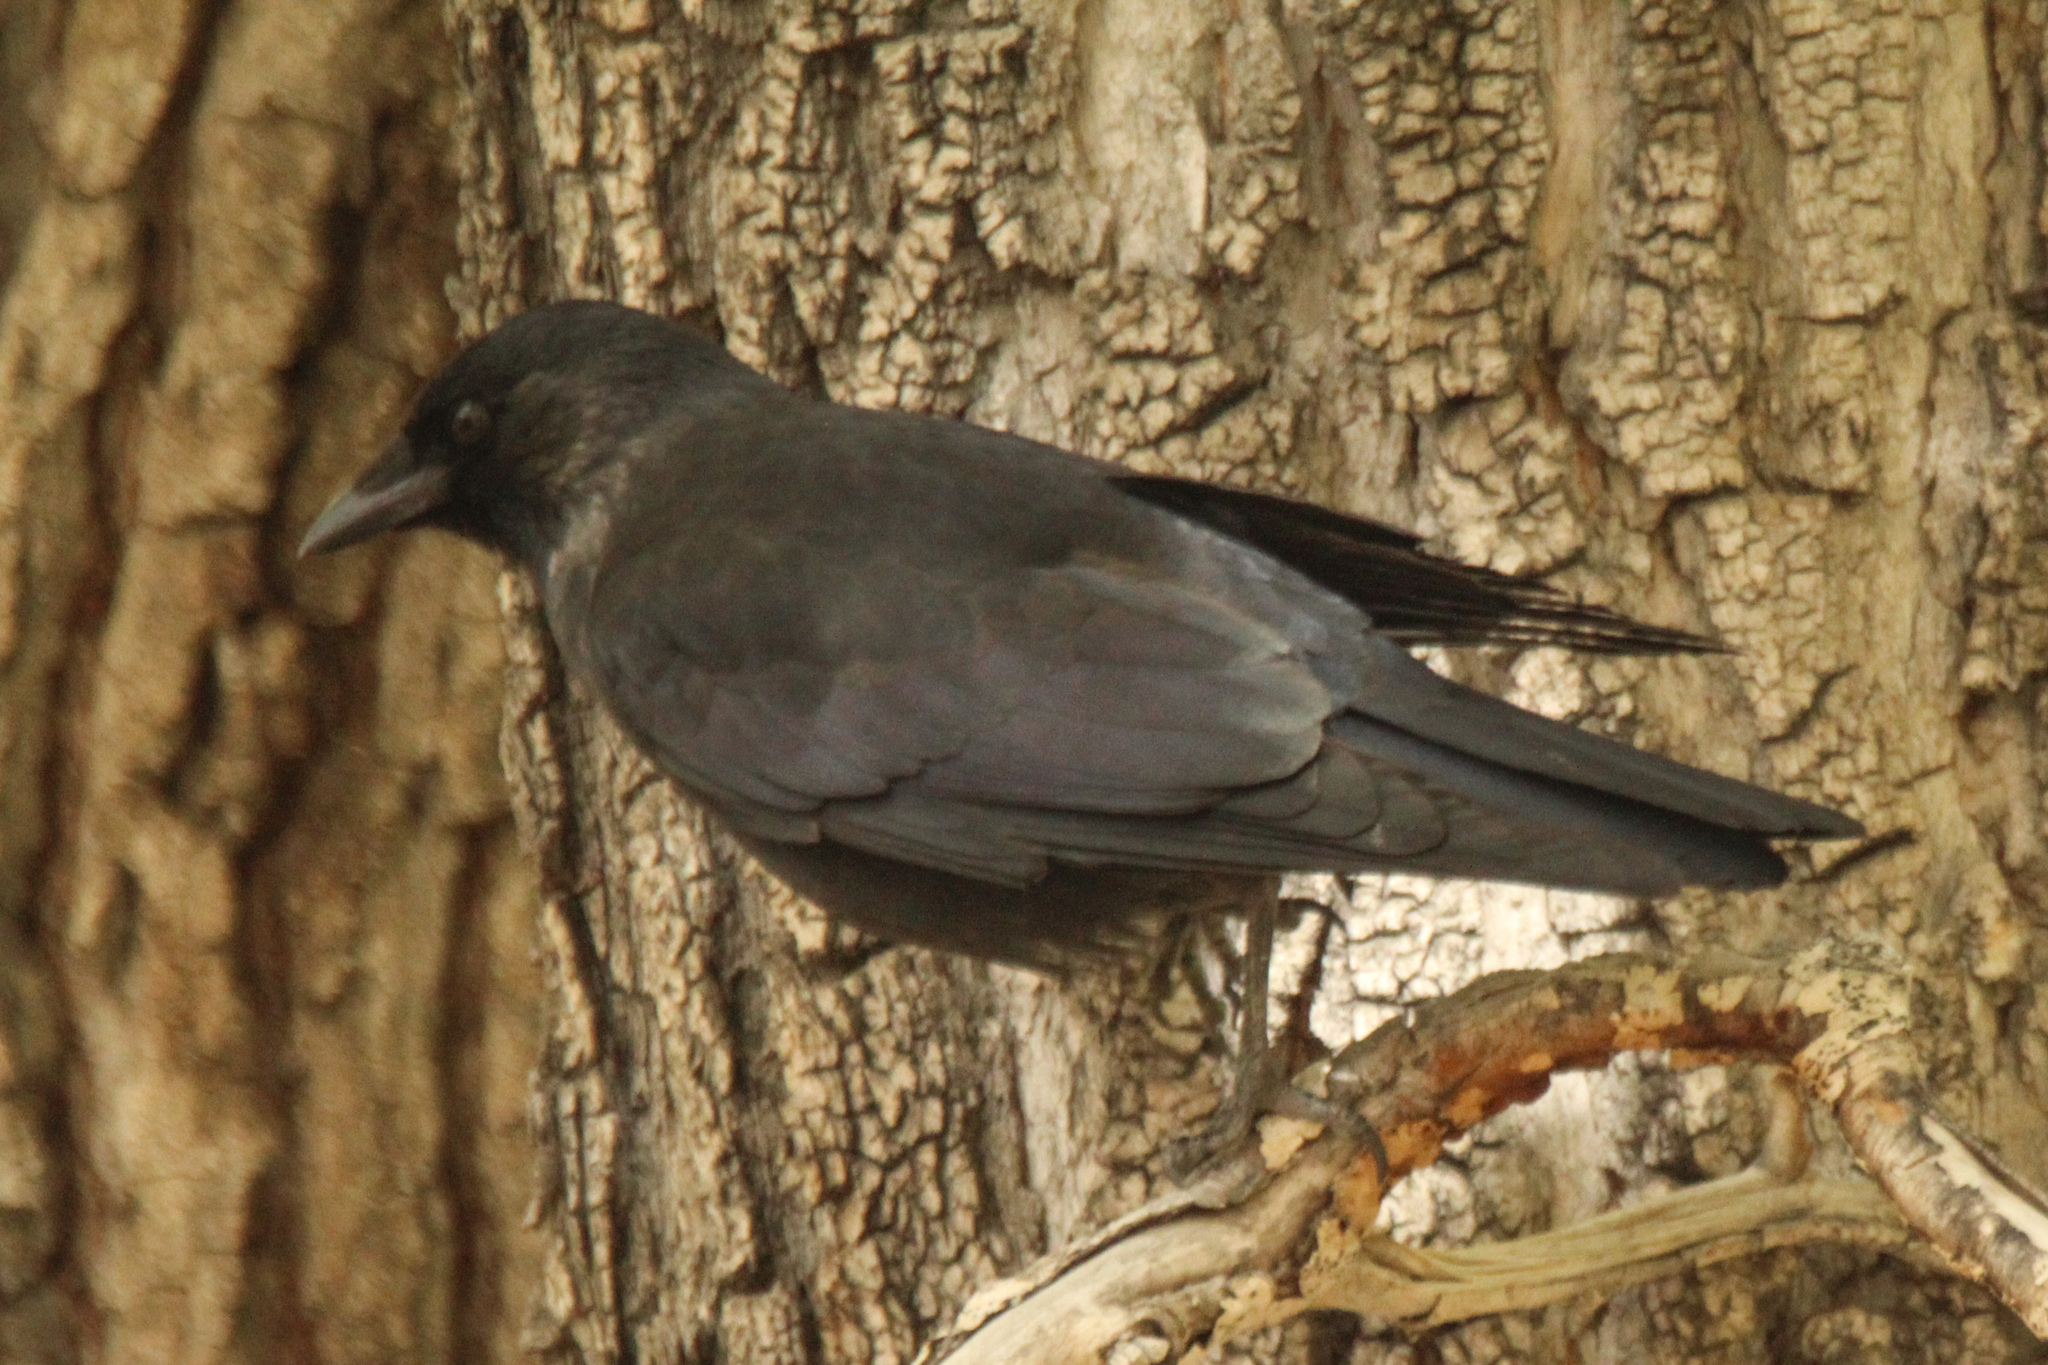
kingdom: Animalia
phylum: Chordata
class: Aves
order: Passeriformes
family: Corvidae
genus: Coloeus
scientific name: Coloeus dauuricus
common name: Daurian jackdaw
